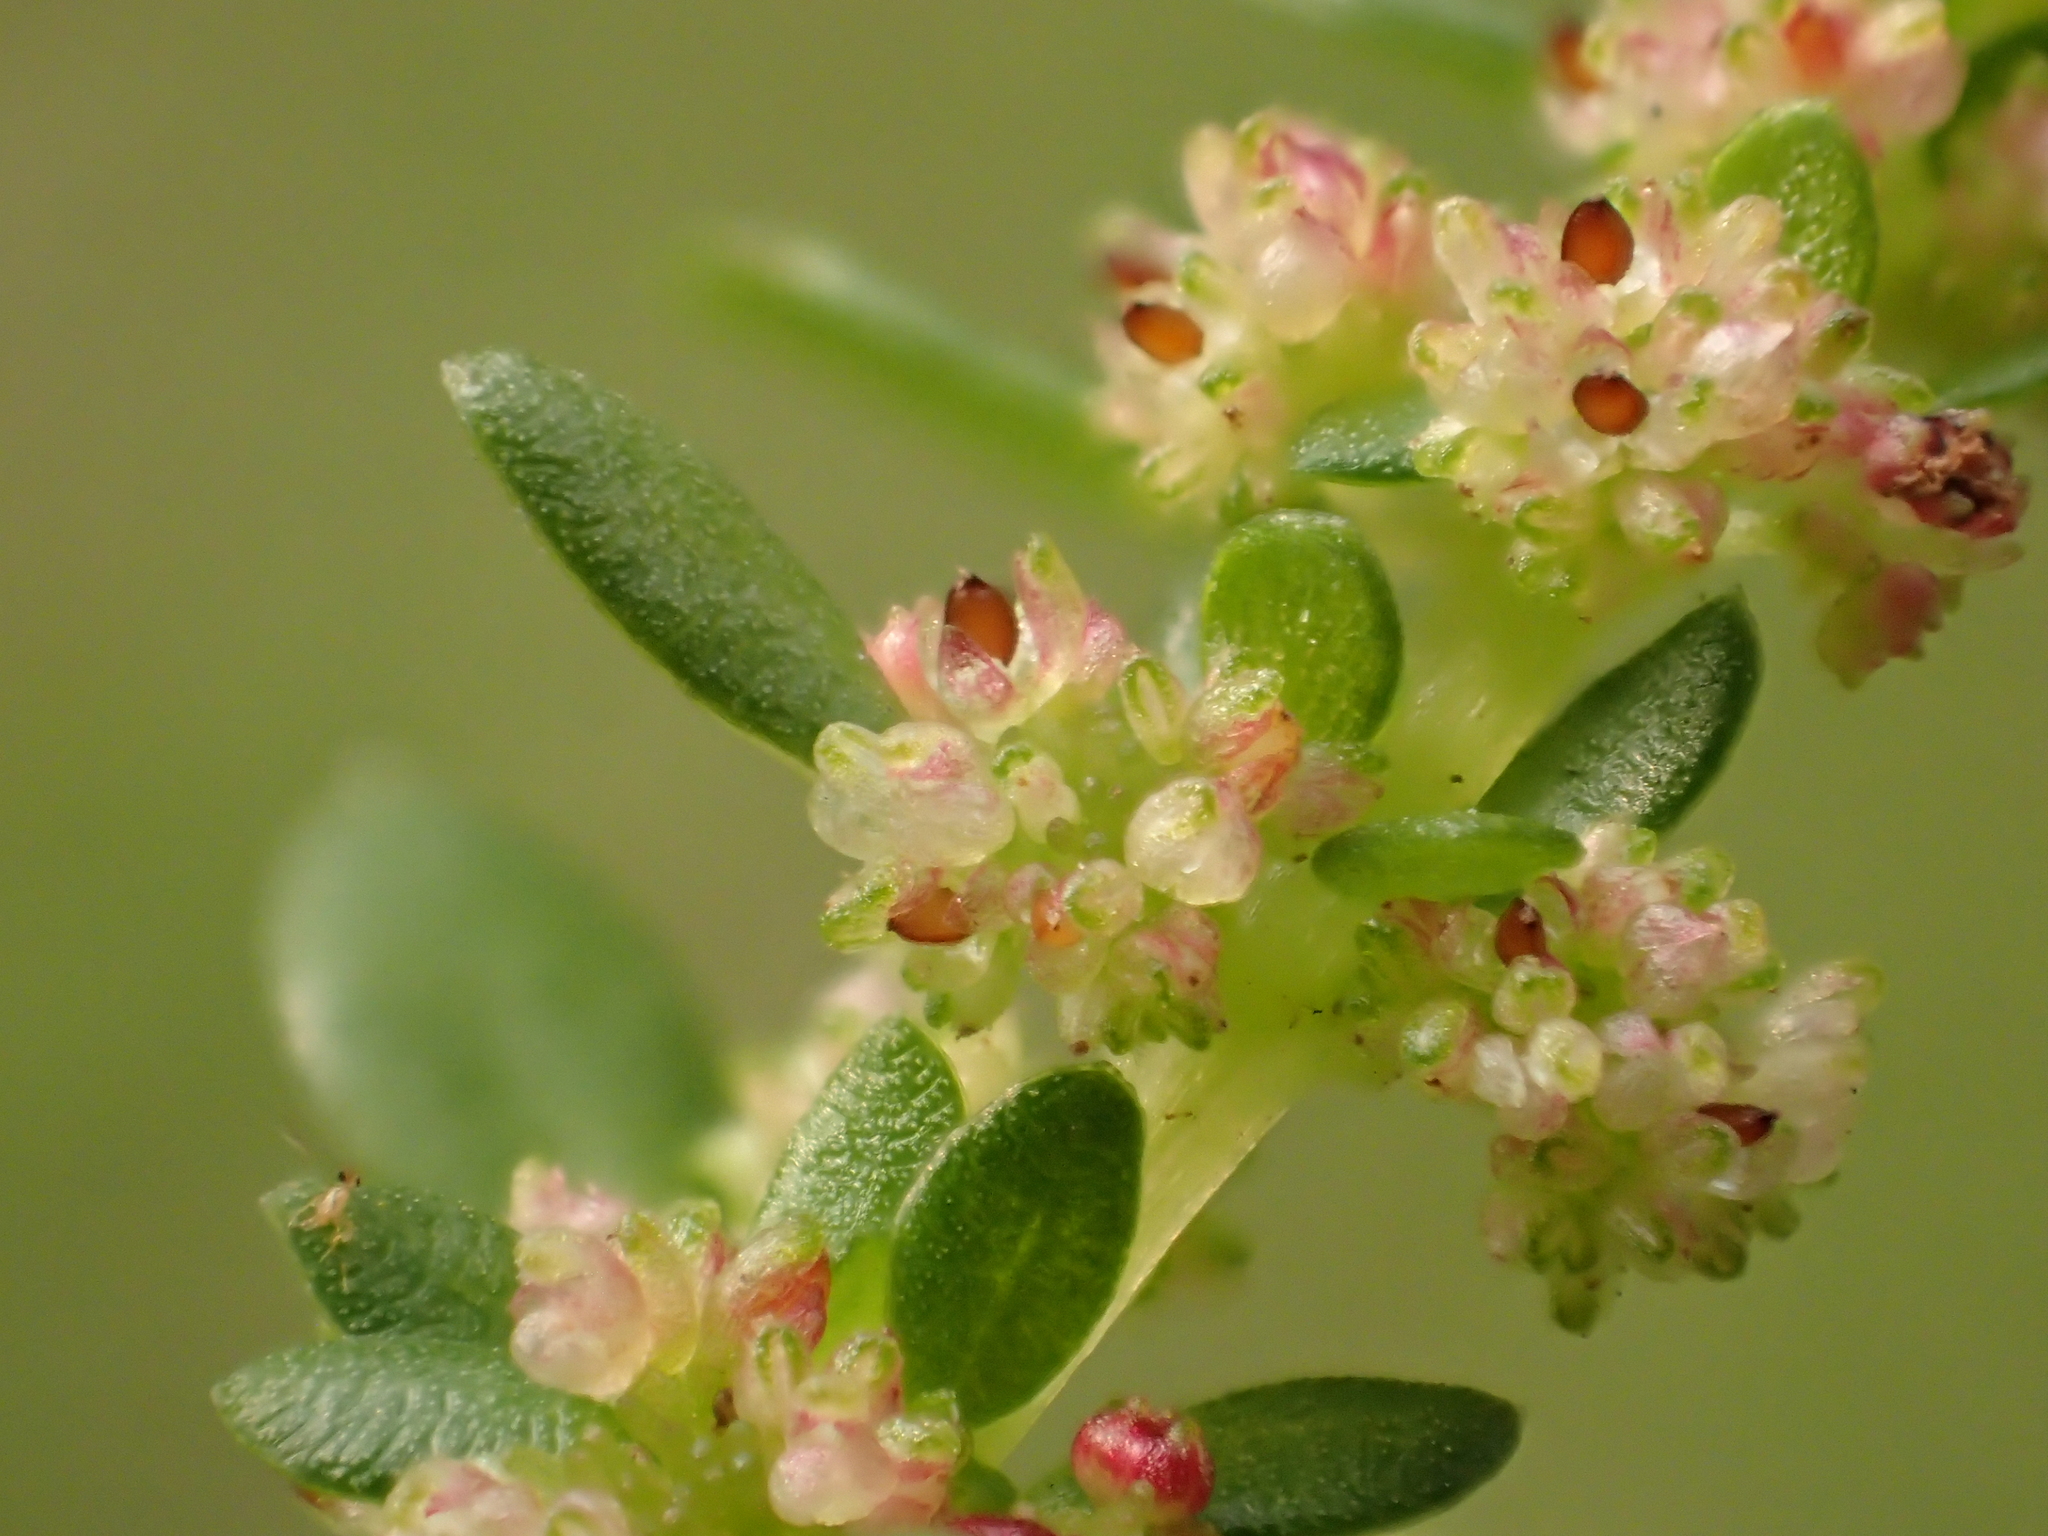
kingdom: Plantae
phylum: Tracheophyta
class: Magnoliopsida
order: Rosales
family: Urticaceae
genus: Pilea
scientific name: Pilea microphylla
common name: Artillery-plant
